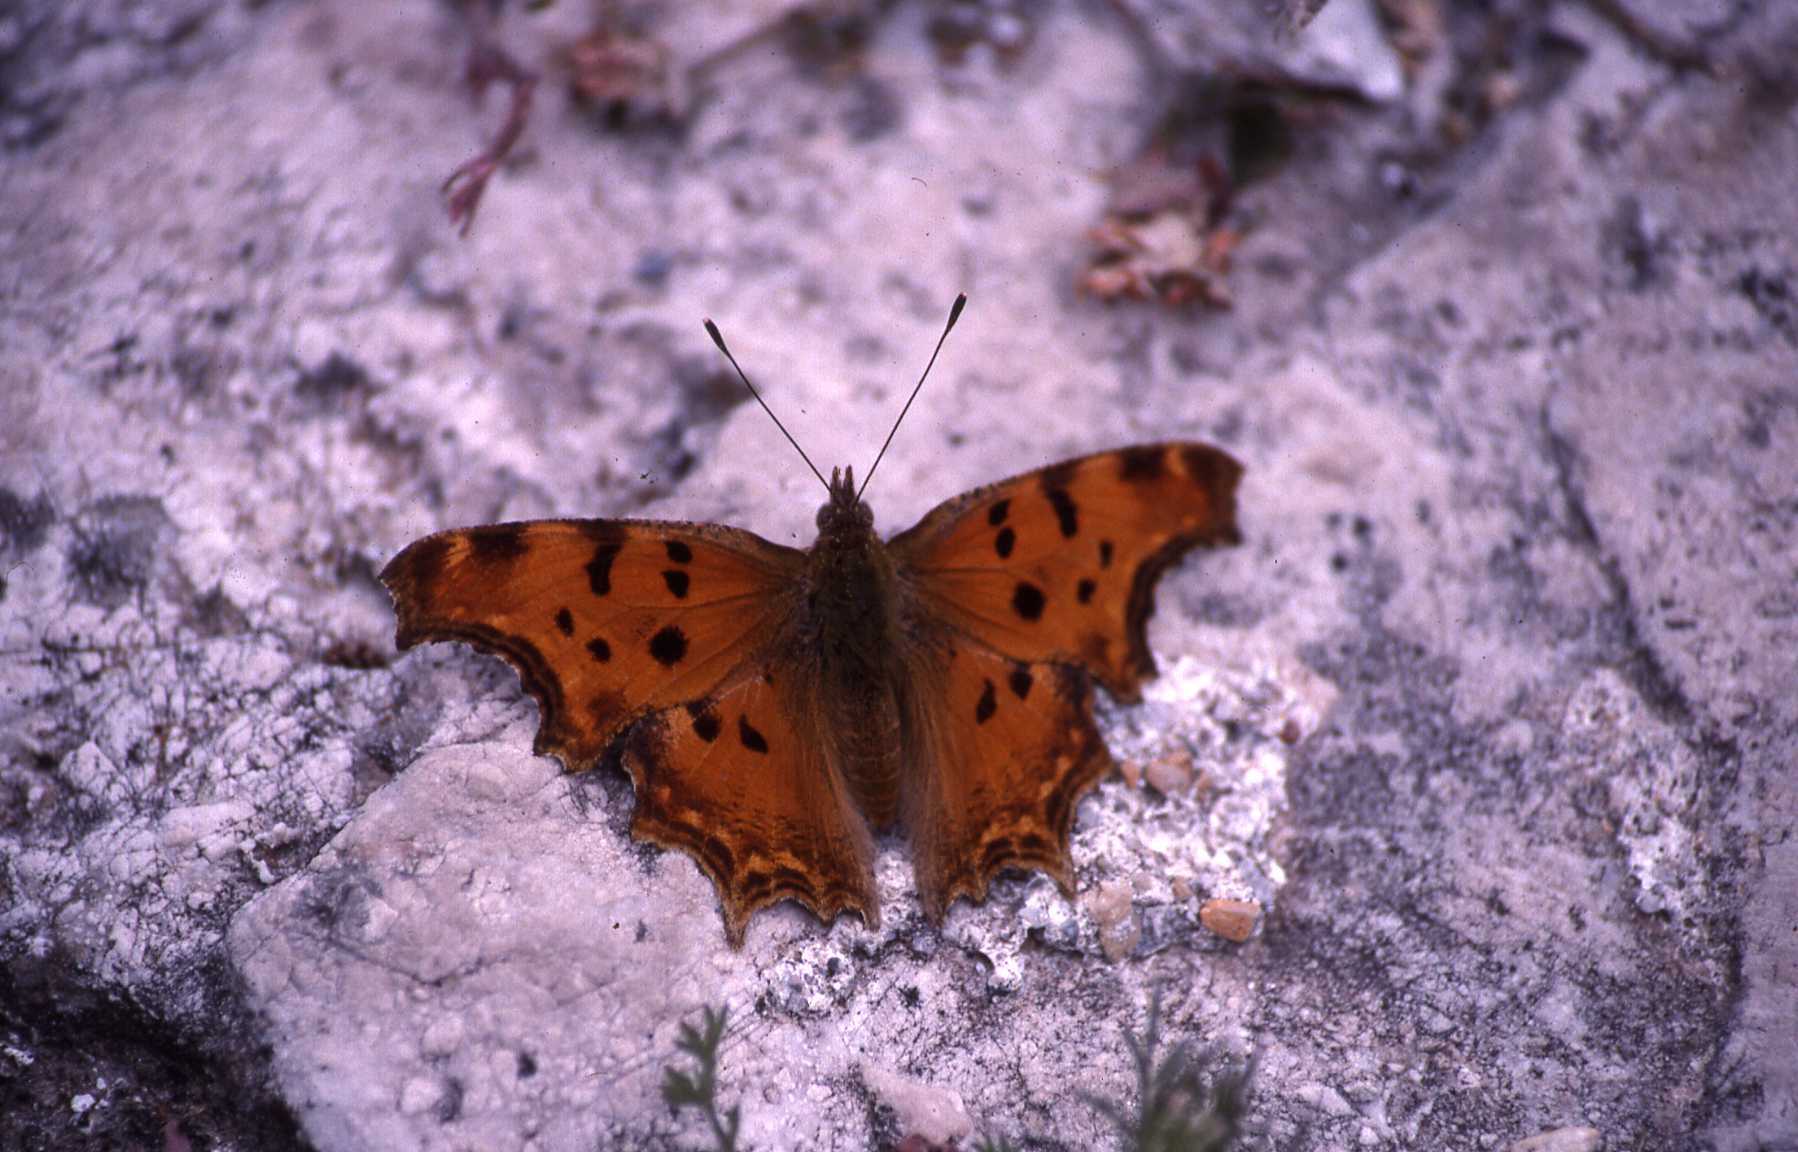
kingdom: Animalia
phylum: Arthropoda
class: Insecta
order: Lepidoptera
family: Nymphalidae
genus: Polygonia
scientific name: Polygonia egea
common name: Southern comma
